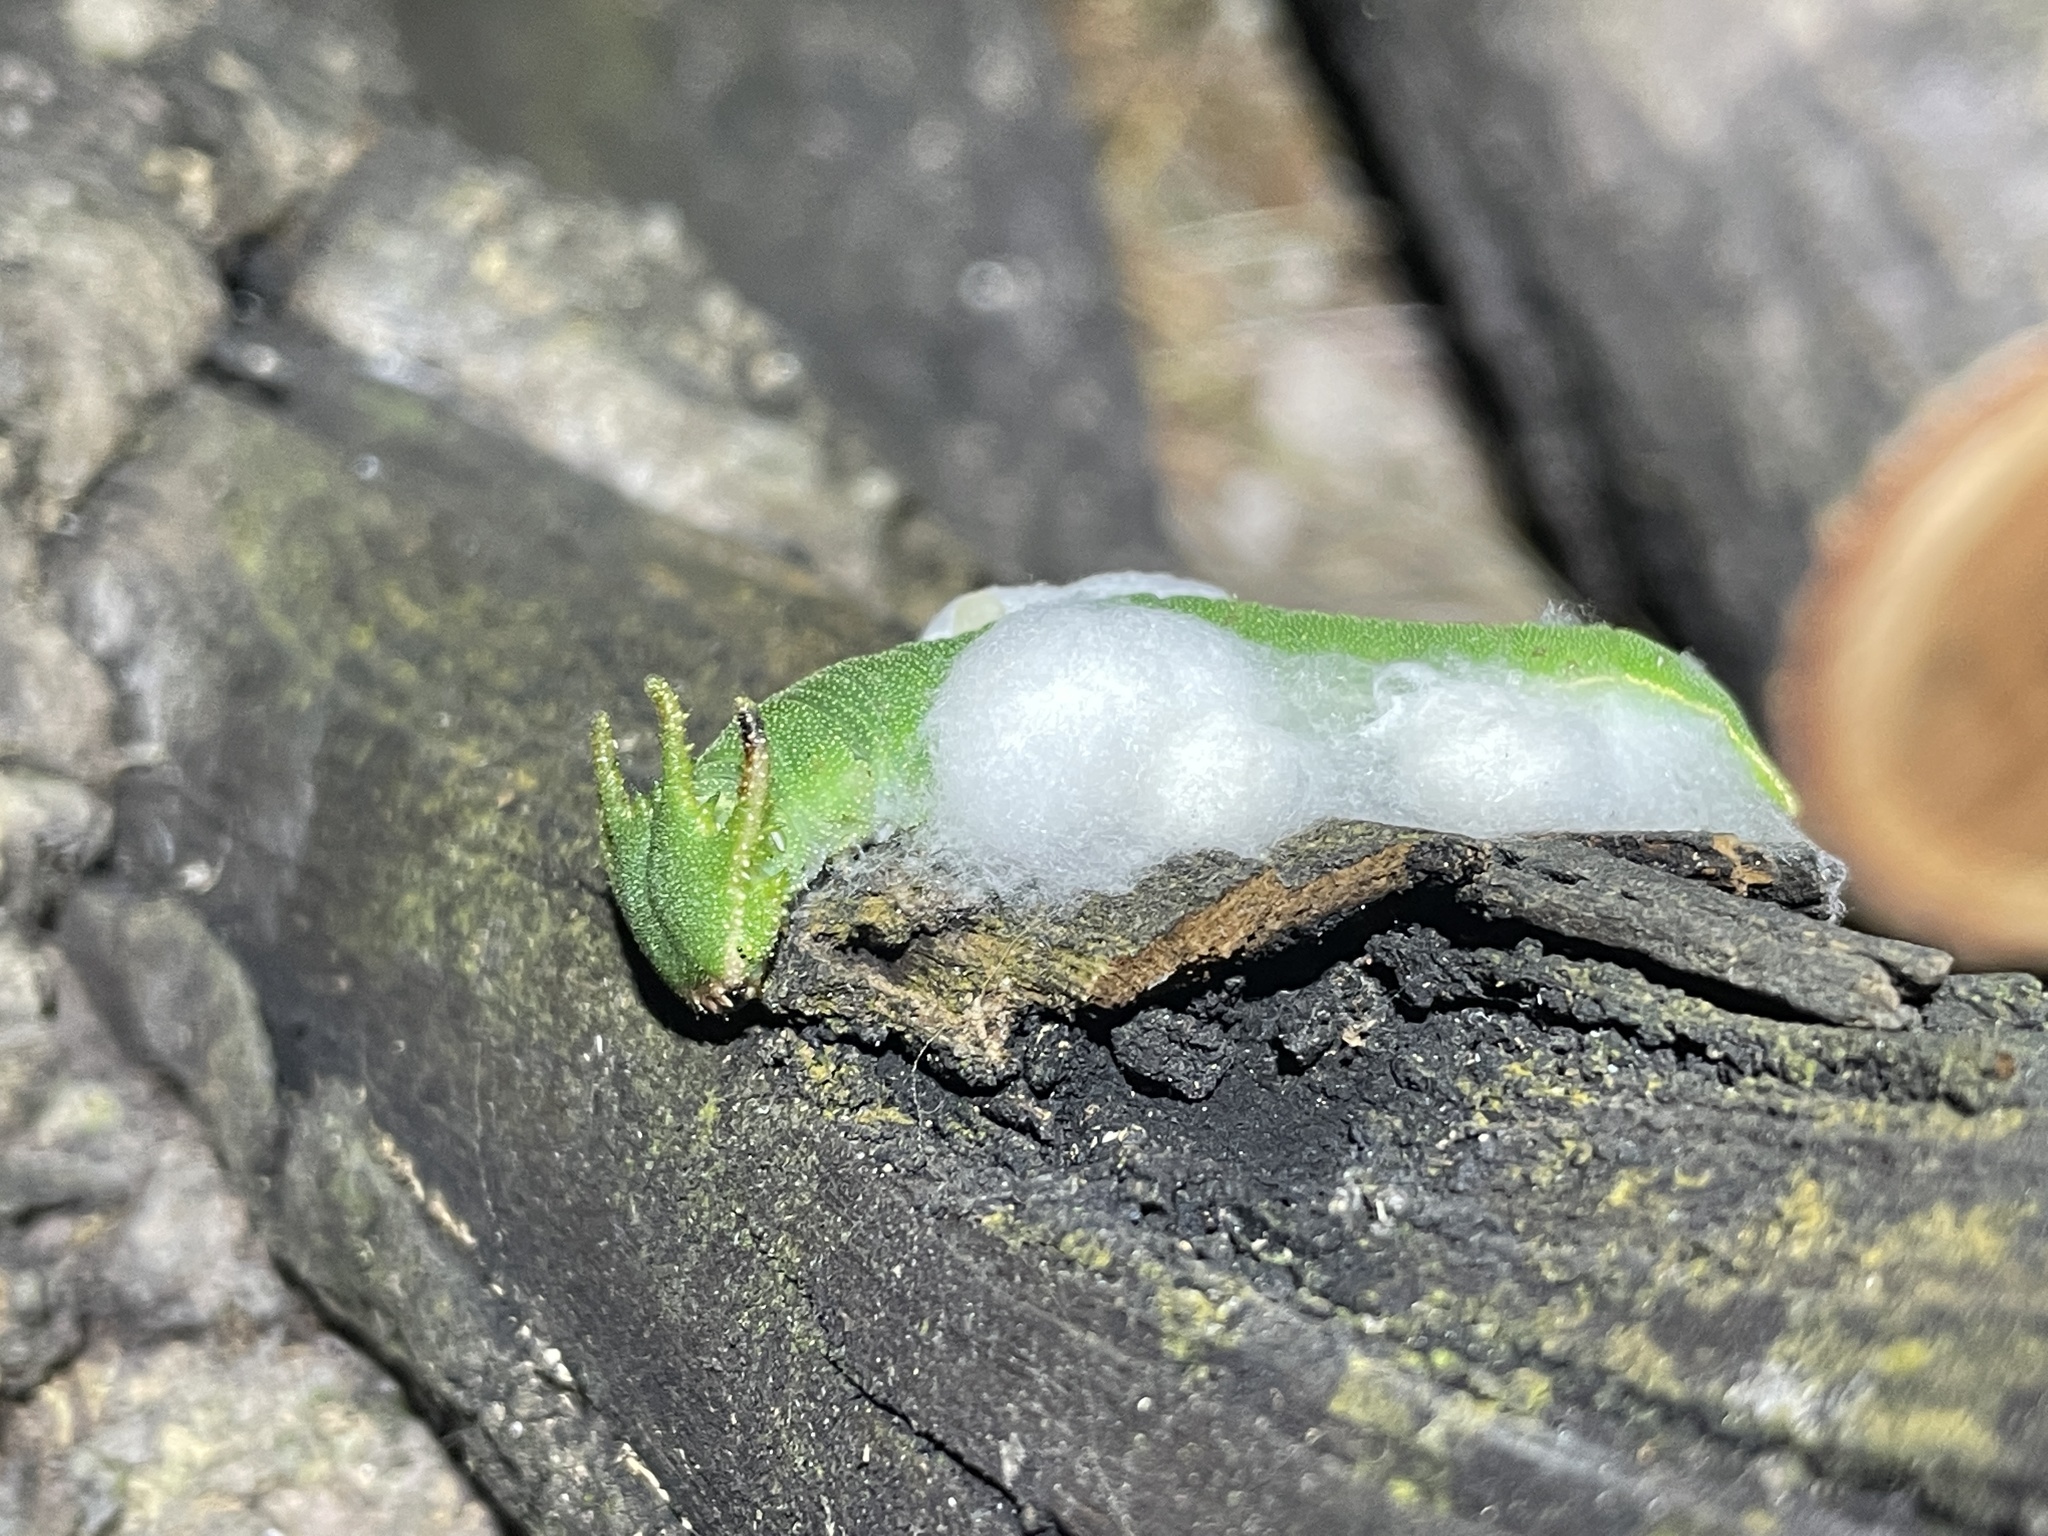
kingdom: Animalia
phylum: Arthropoda
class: Insecta
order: Lepidoptera
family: Nymphalidae
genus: Charaxes
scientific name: Charaxes bernardus
